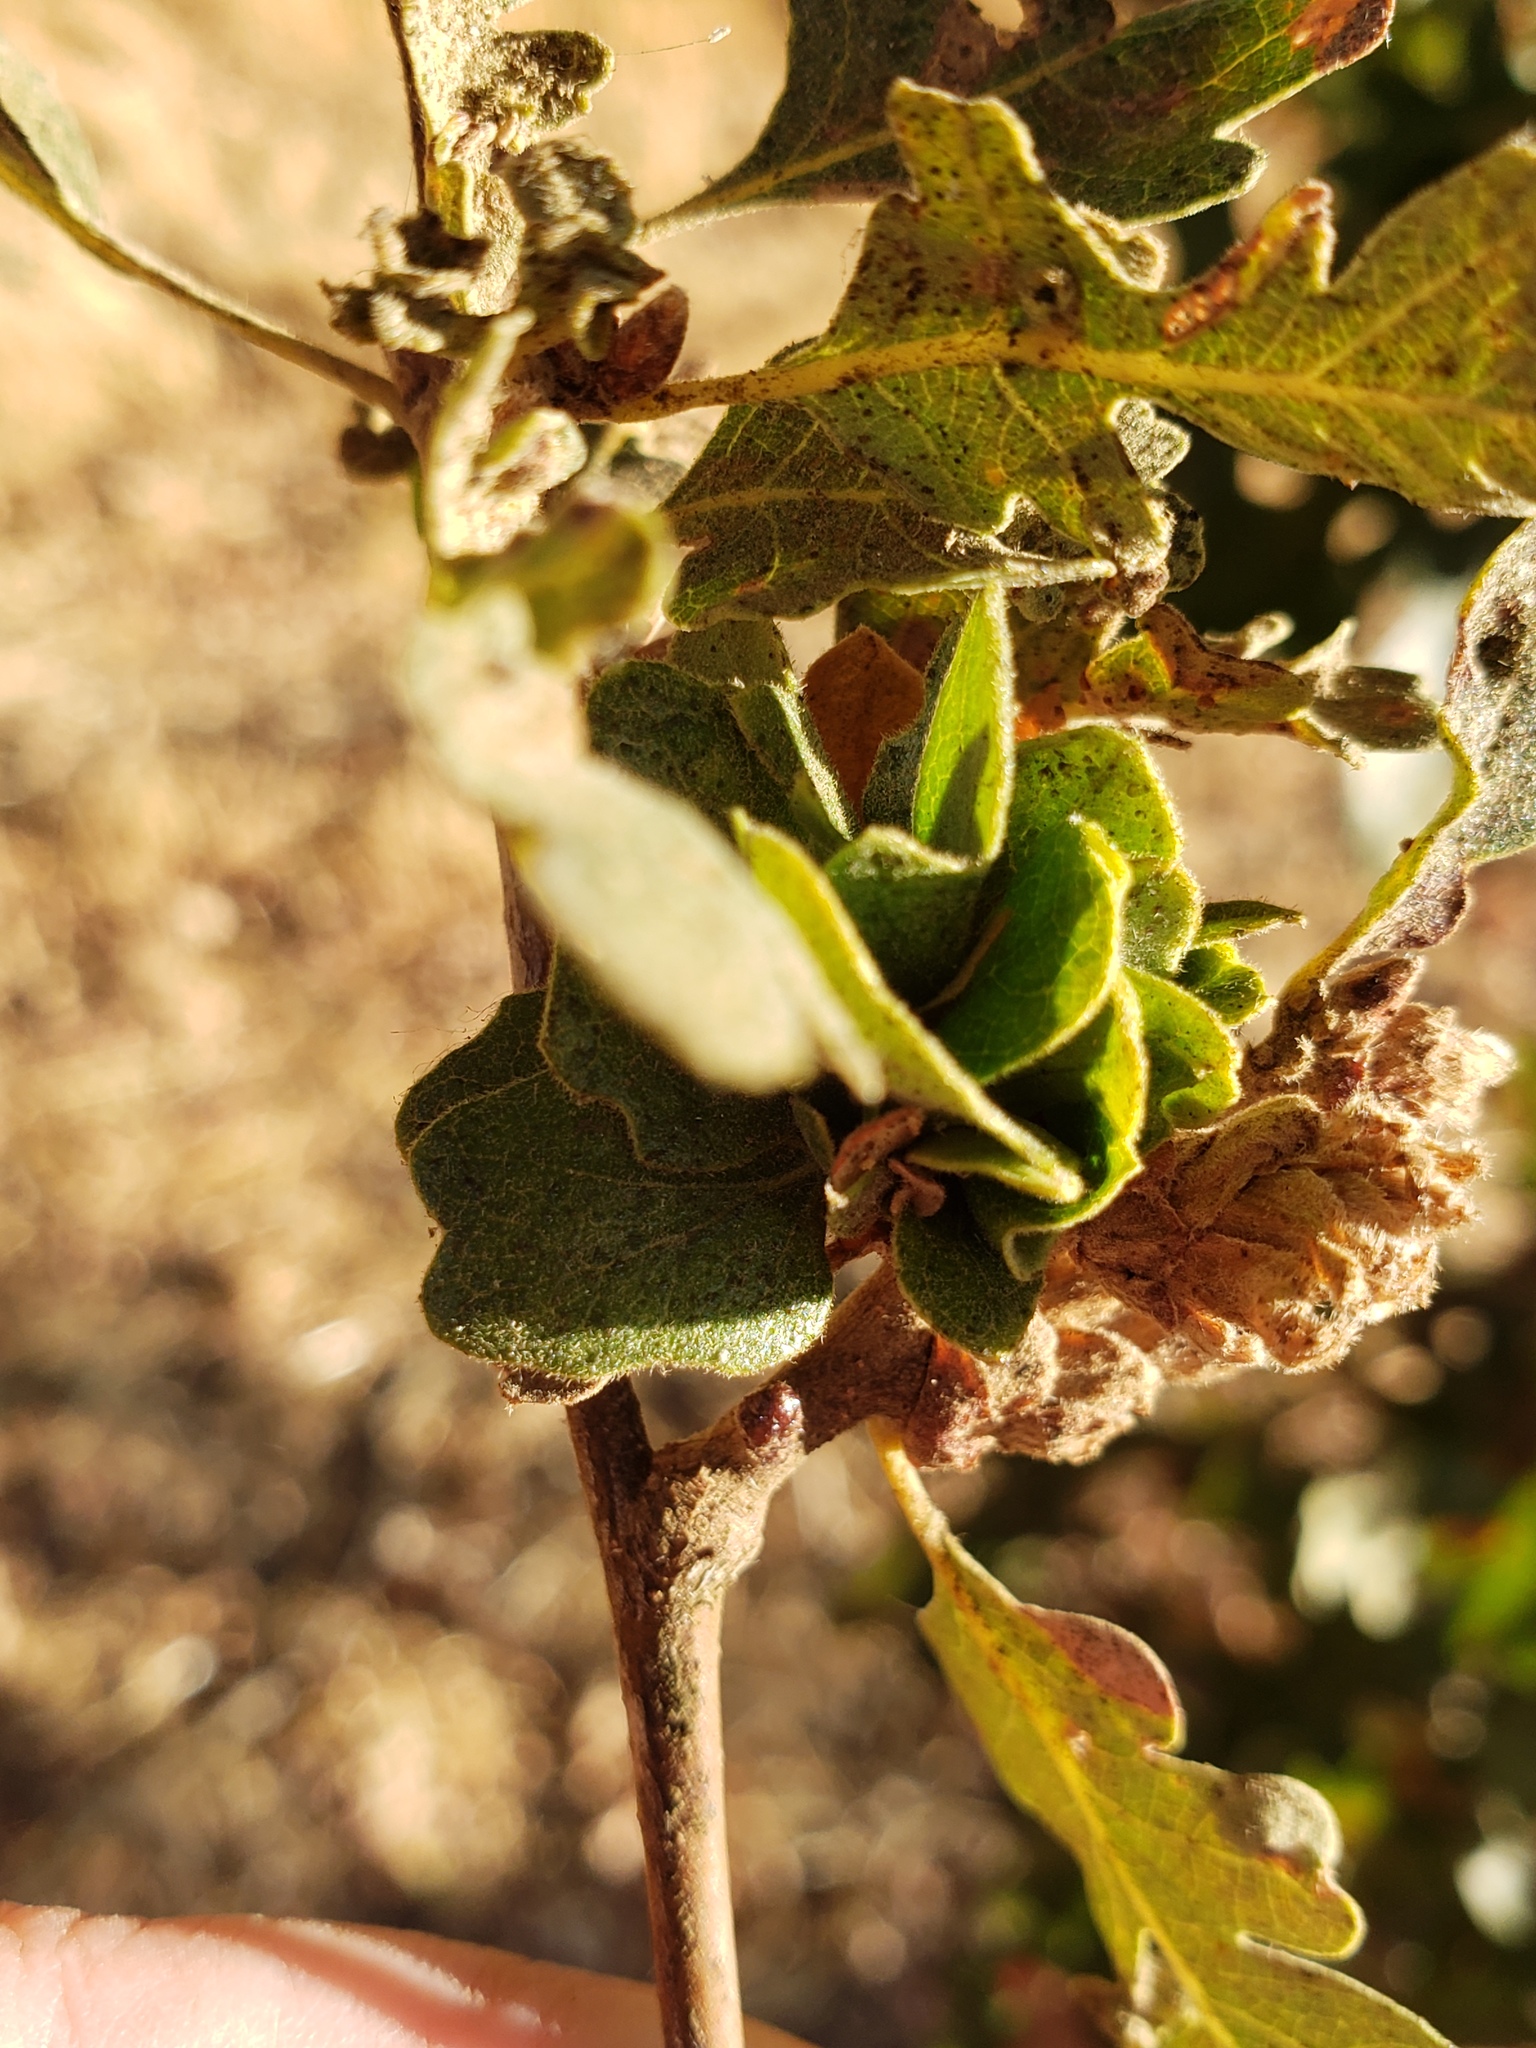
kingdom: Animalia
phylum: Arthropoda
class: Insecta
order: Hymenoptera
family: Cynipidae
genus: Andricus
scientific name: Andricus
